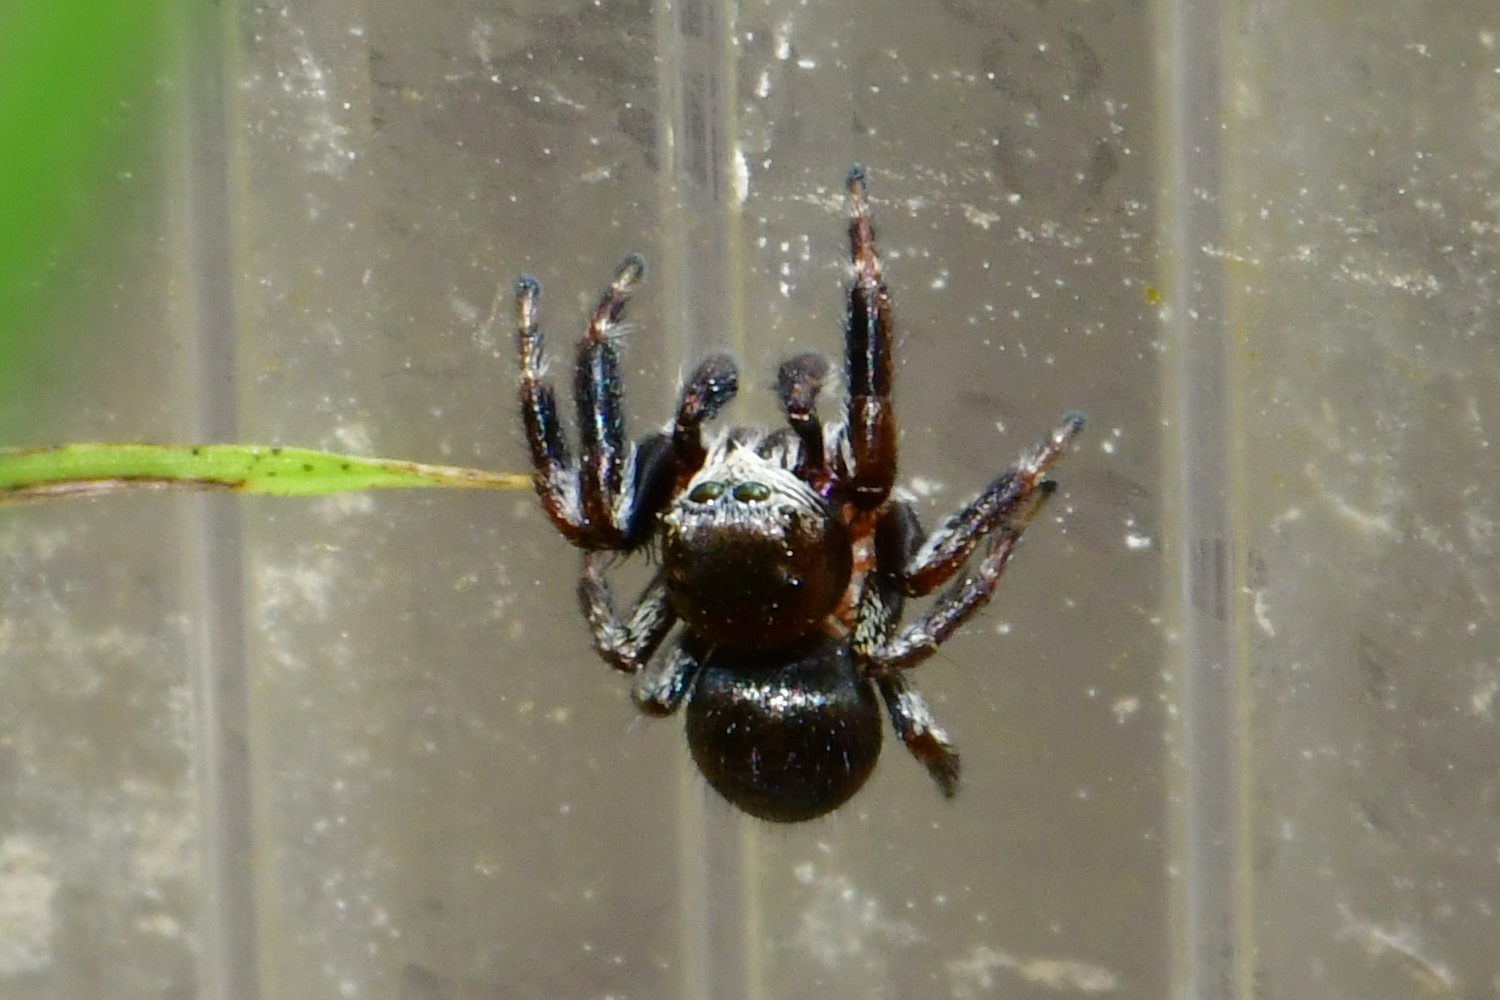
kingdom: Animalia
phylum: Arthropoda
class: Arachnida
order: Araneae
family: Salticidae
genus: Evarcha
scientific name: Evarcha arcuata
